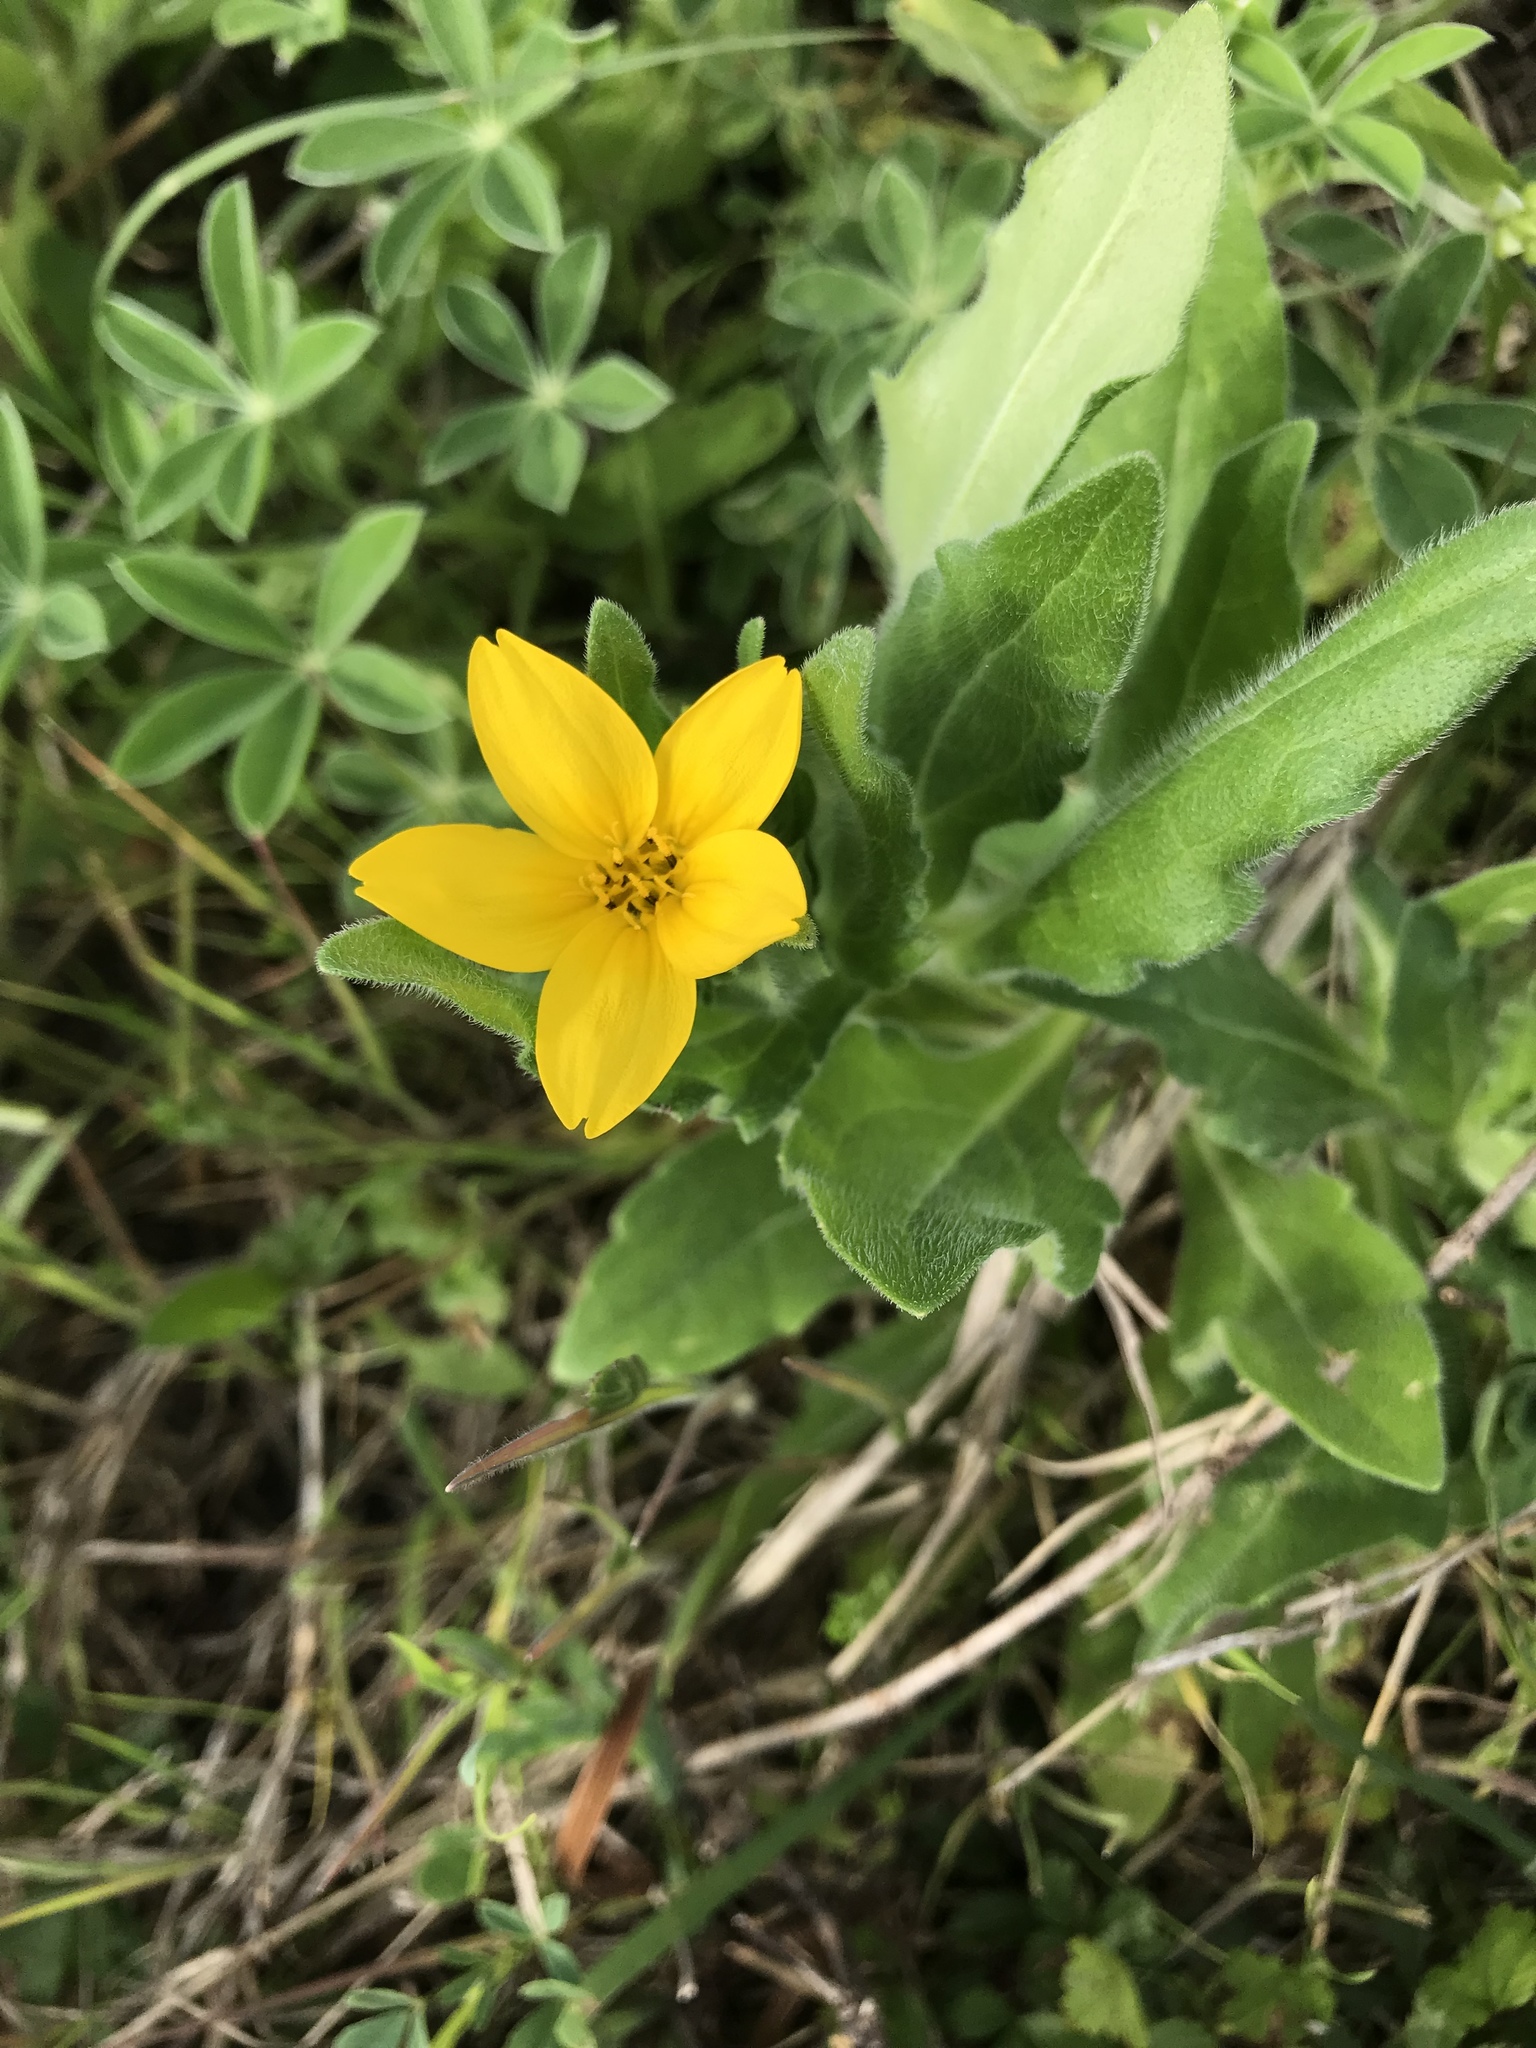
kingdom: Plantae
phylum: Tracheophyta
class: Magnoliopsida
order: Asterales
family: Asteraceae
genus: Lindheimera
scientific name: Lindheimera texana
